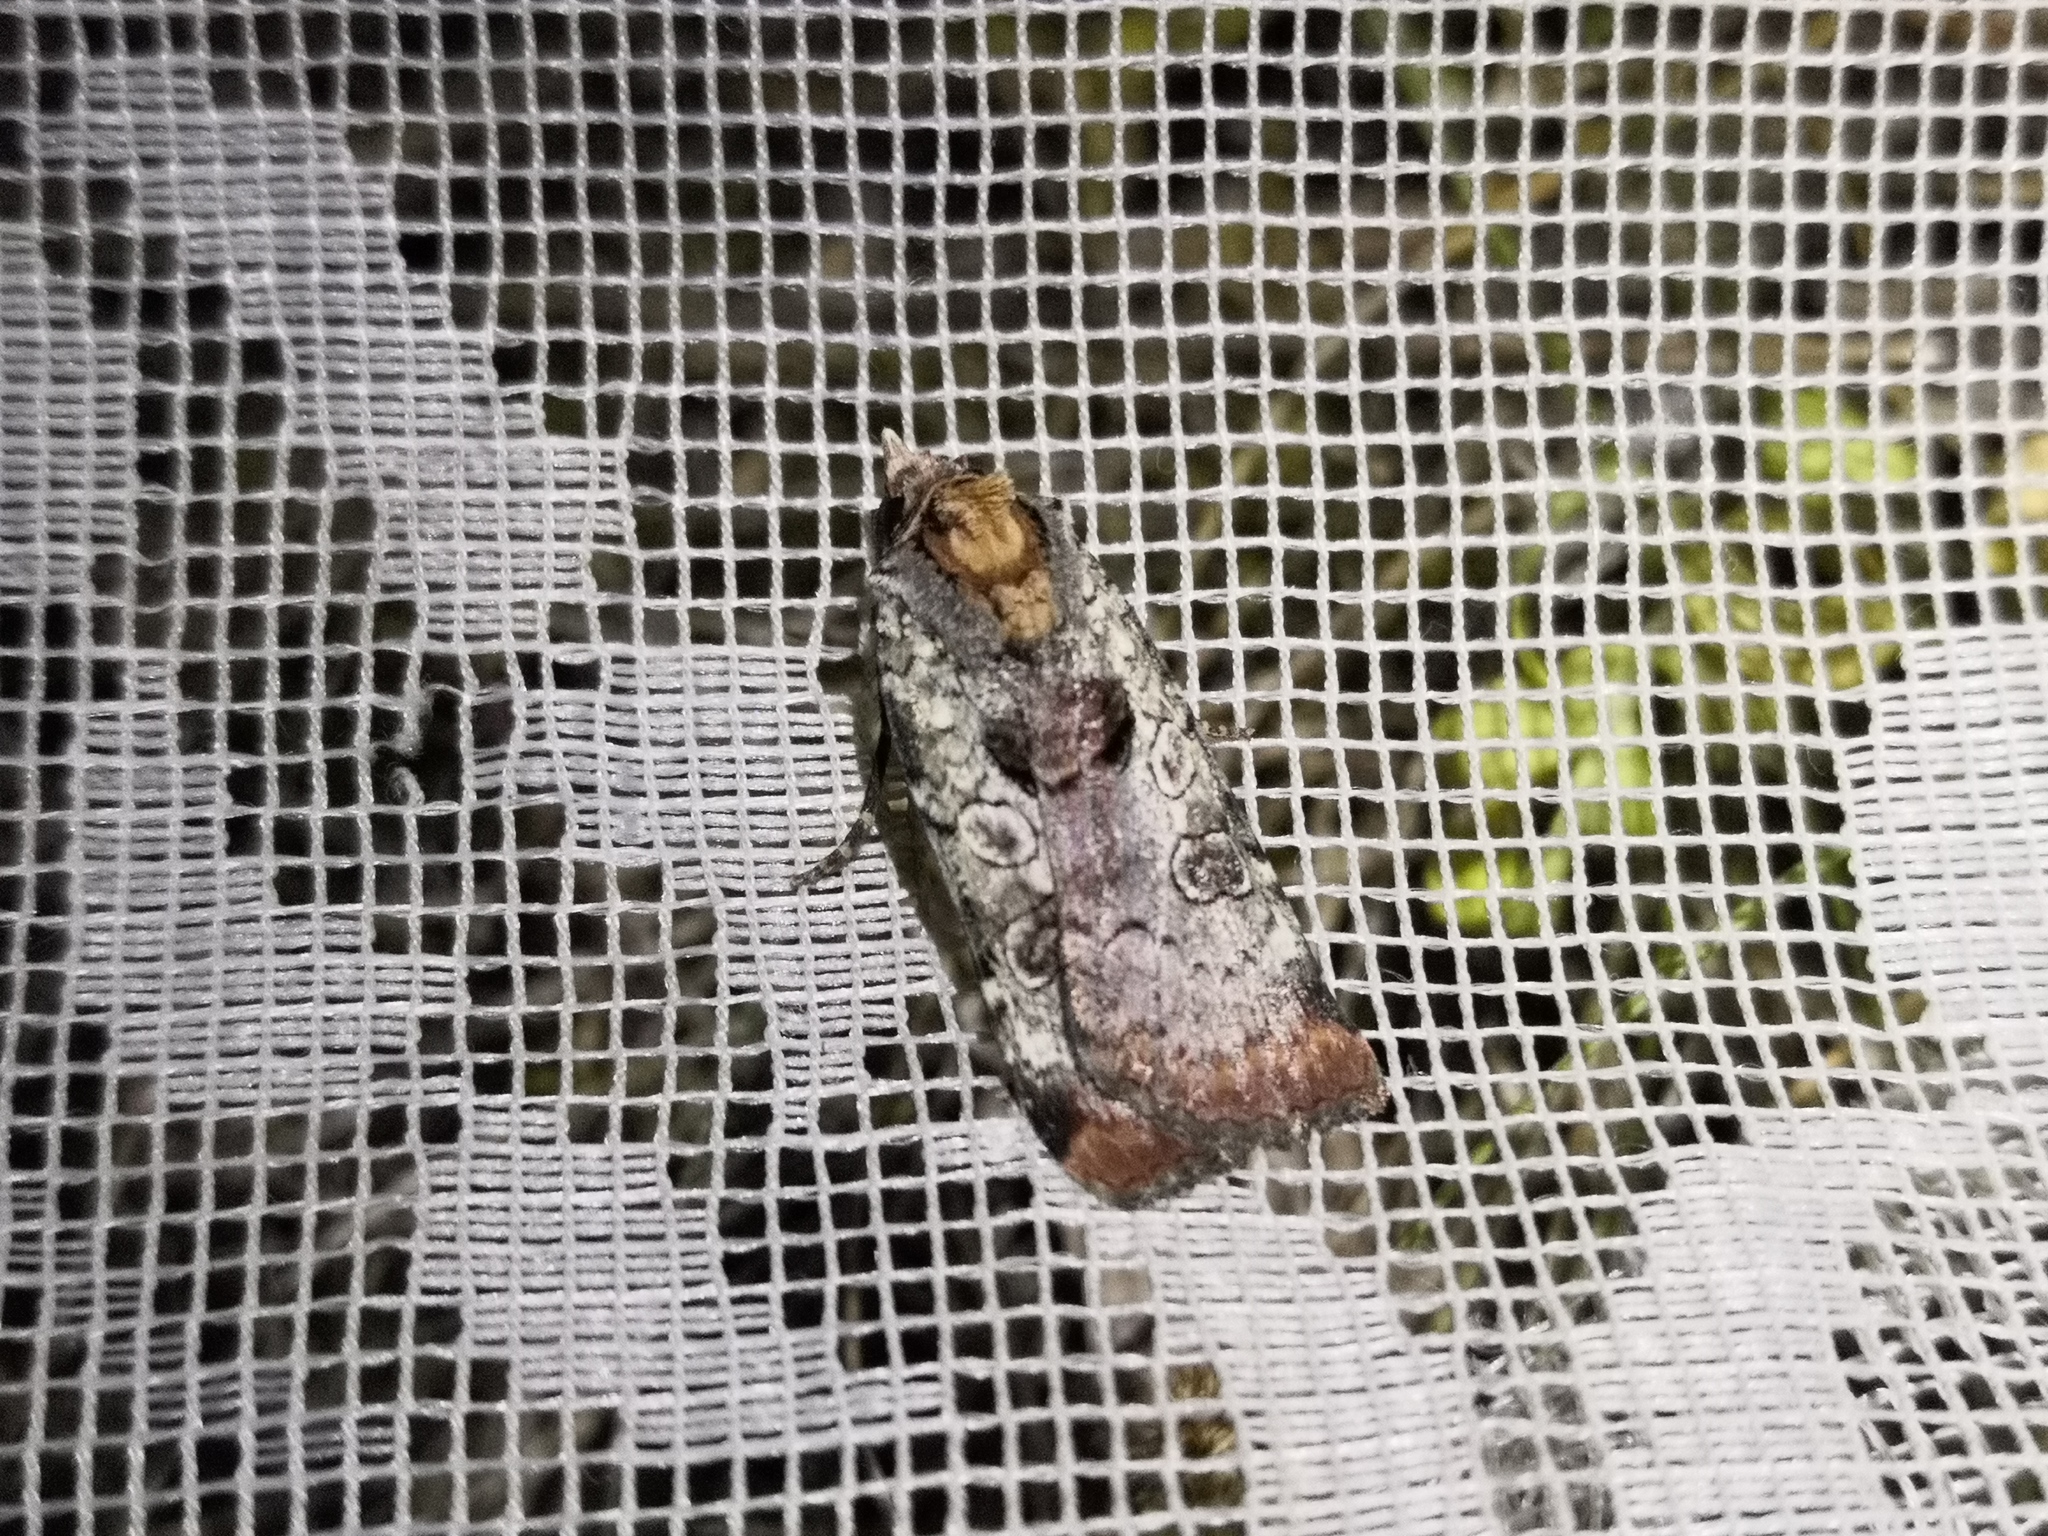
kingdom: Animalia
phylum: Arthropoda
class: Insecta
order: Lepidoptera
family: Noctuidae
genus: Epilecta
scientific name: Epilecta linogrisea
